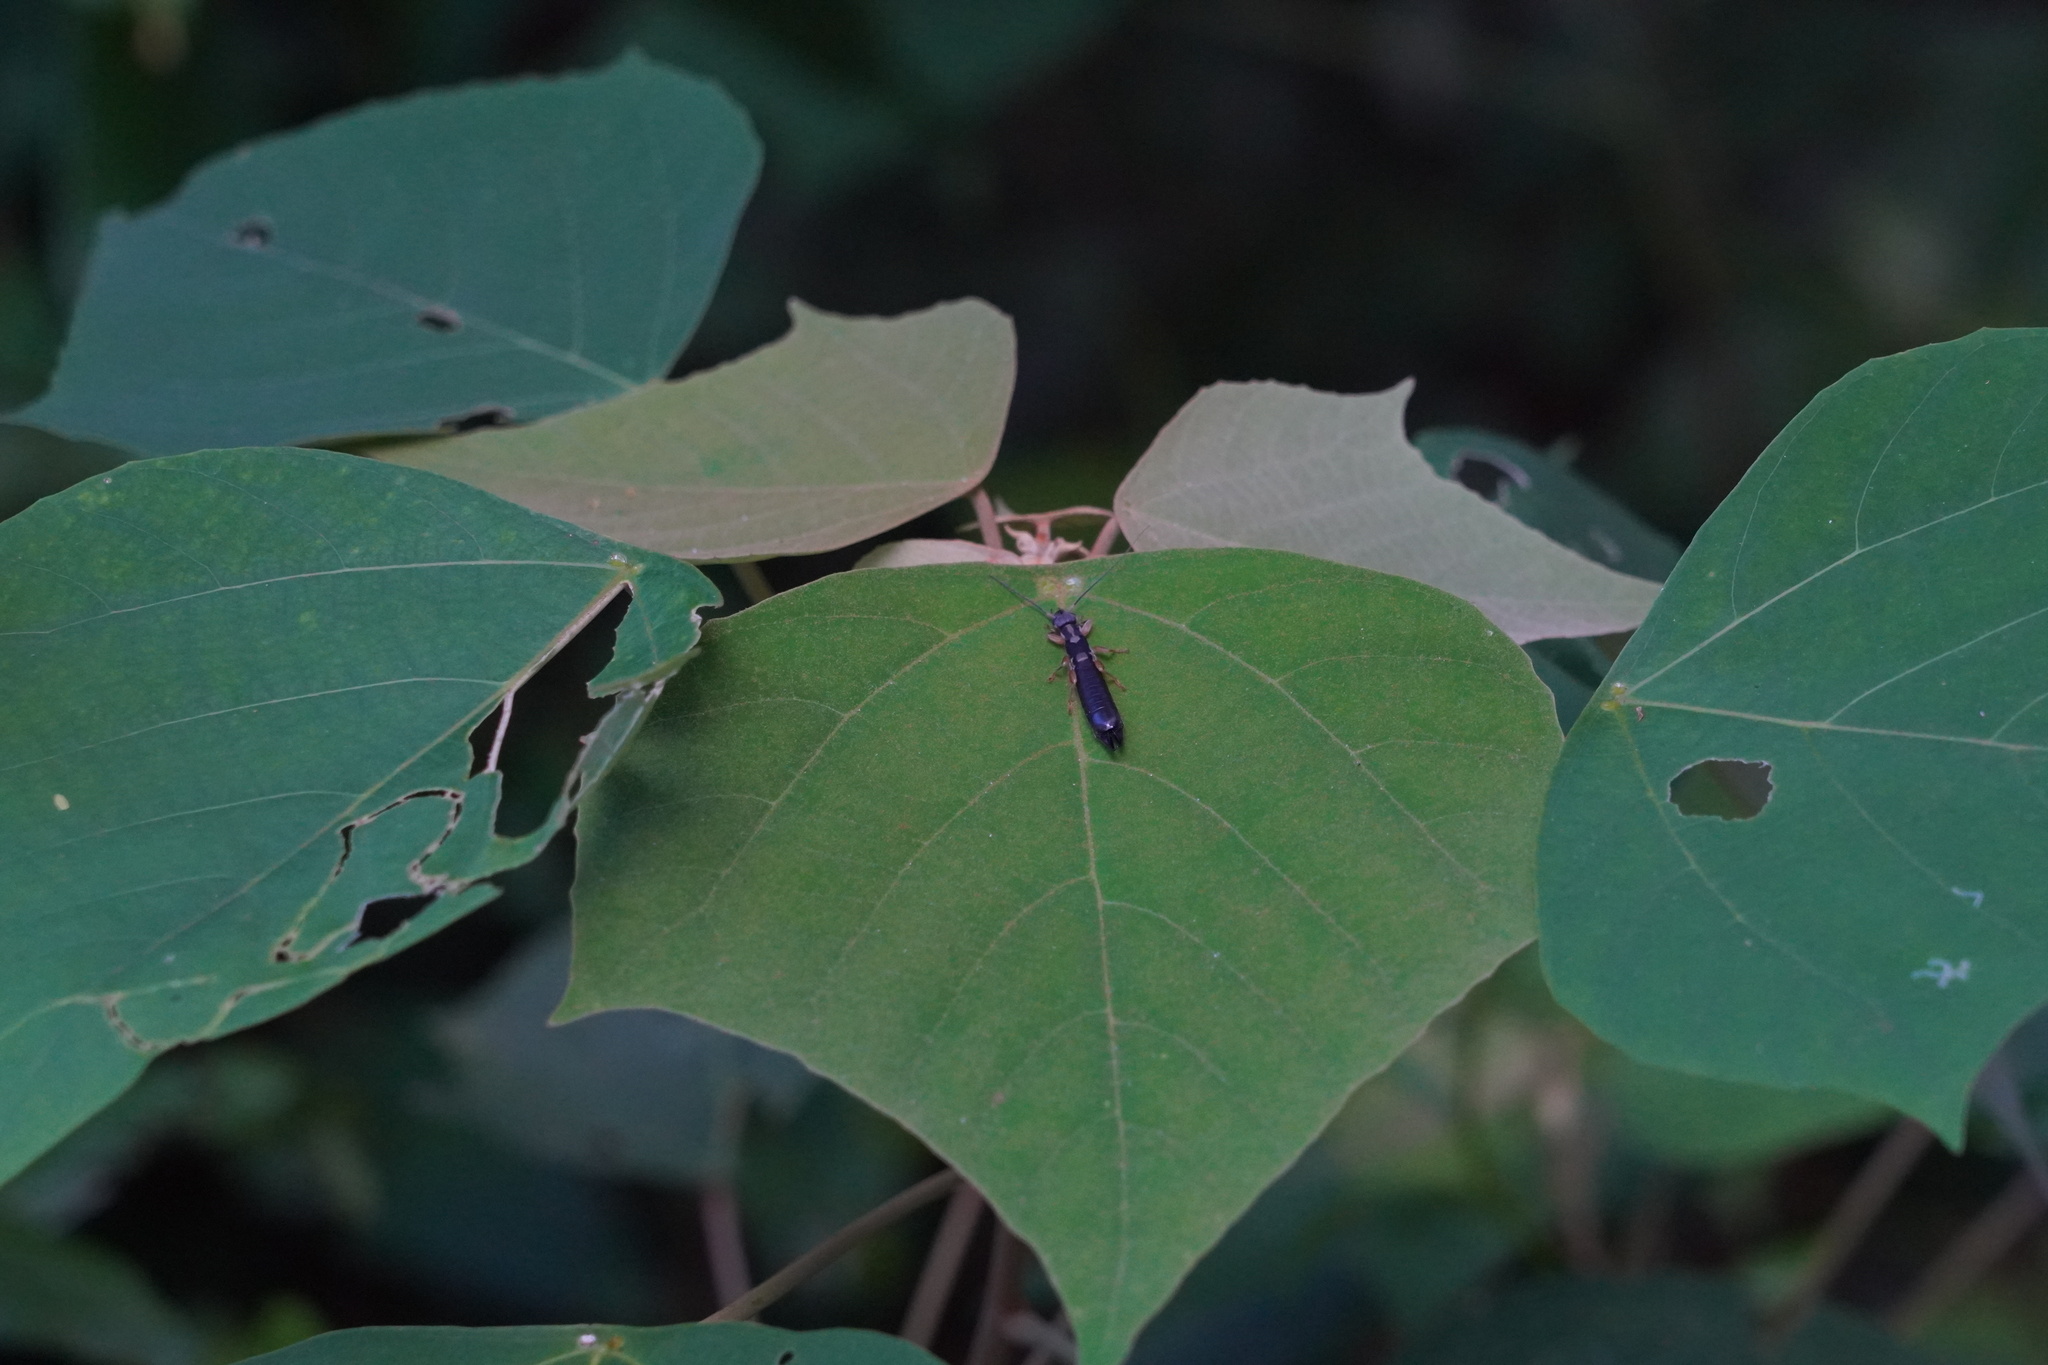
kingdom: Animalia
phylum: Arthropoda
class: Insecta
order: Dermaptera
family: Pygidicranidae
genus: Cranopygia
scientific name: Cranopygia vitticollis
